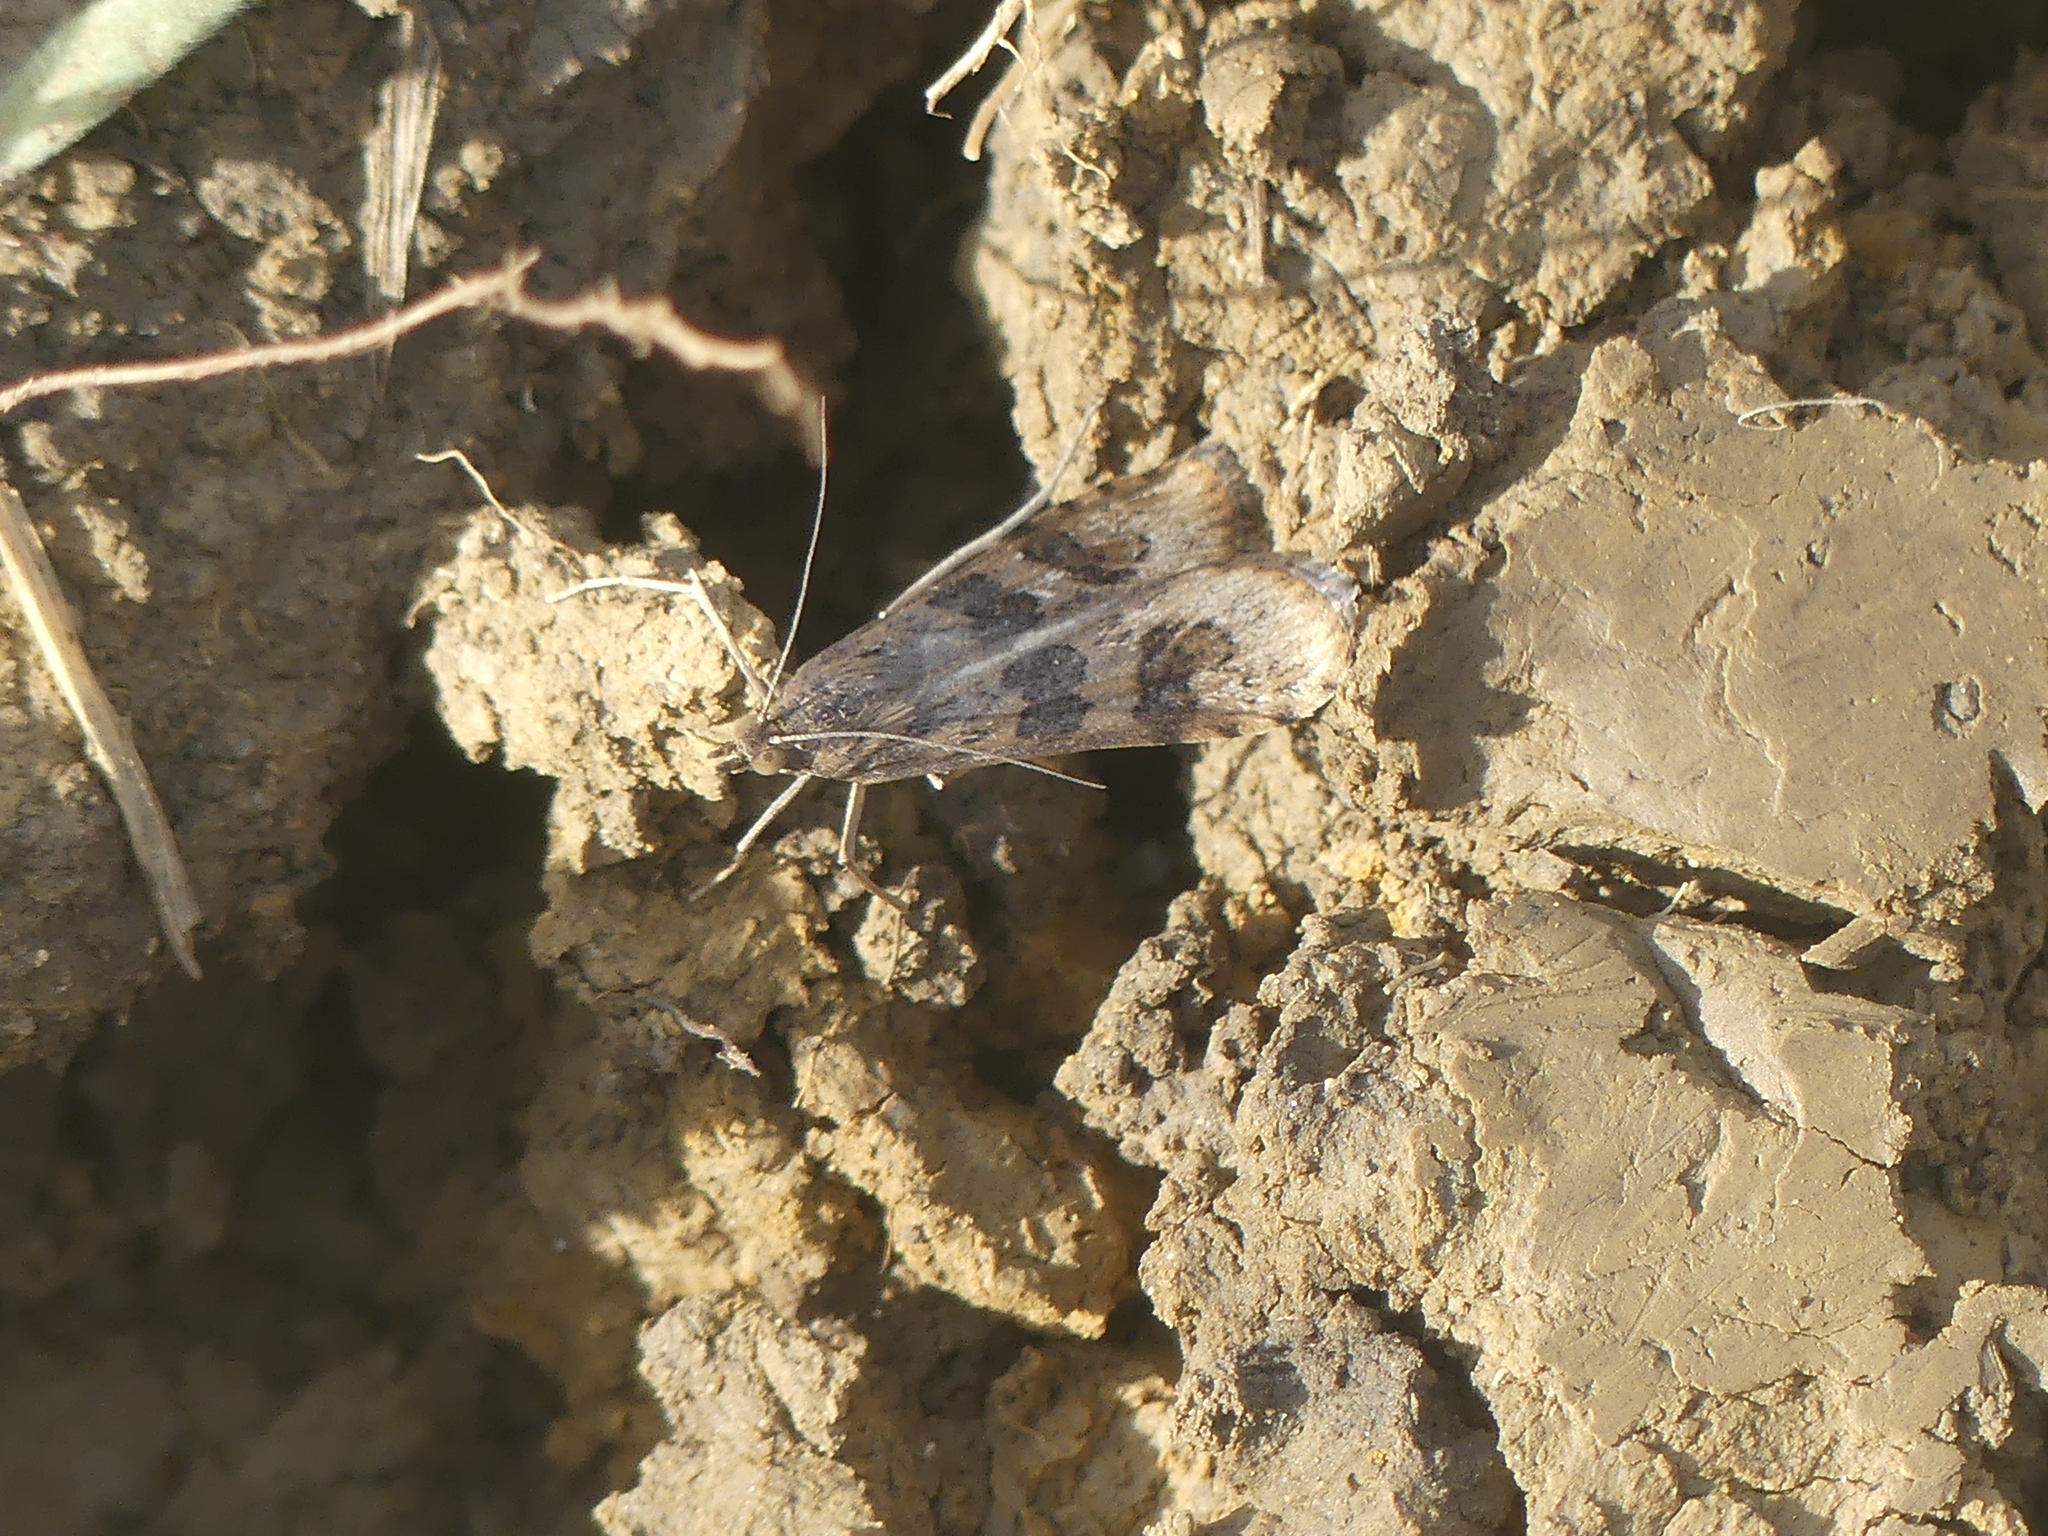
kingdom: Animalia
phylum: Arthropoda
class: Insecta
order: Lepidoptera
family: Crambidae
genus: Nomophila
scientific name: Nomophila noctuella
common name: Rush veneer
